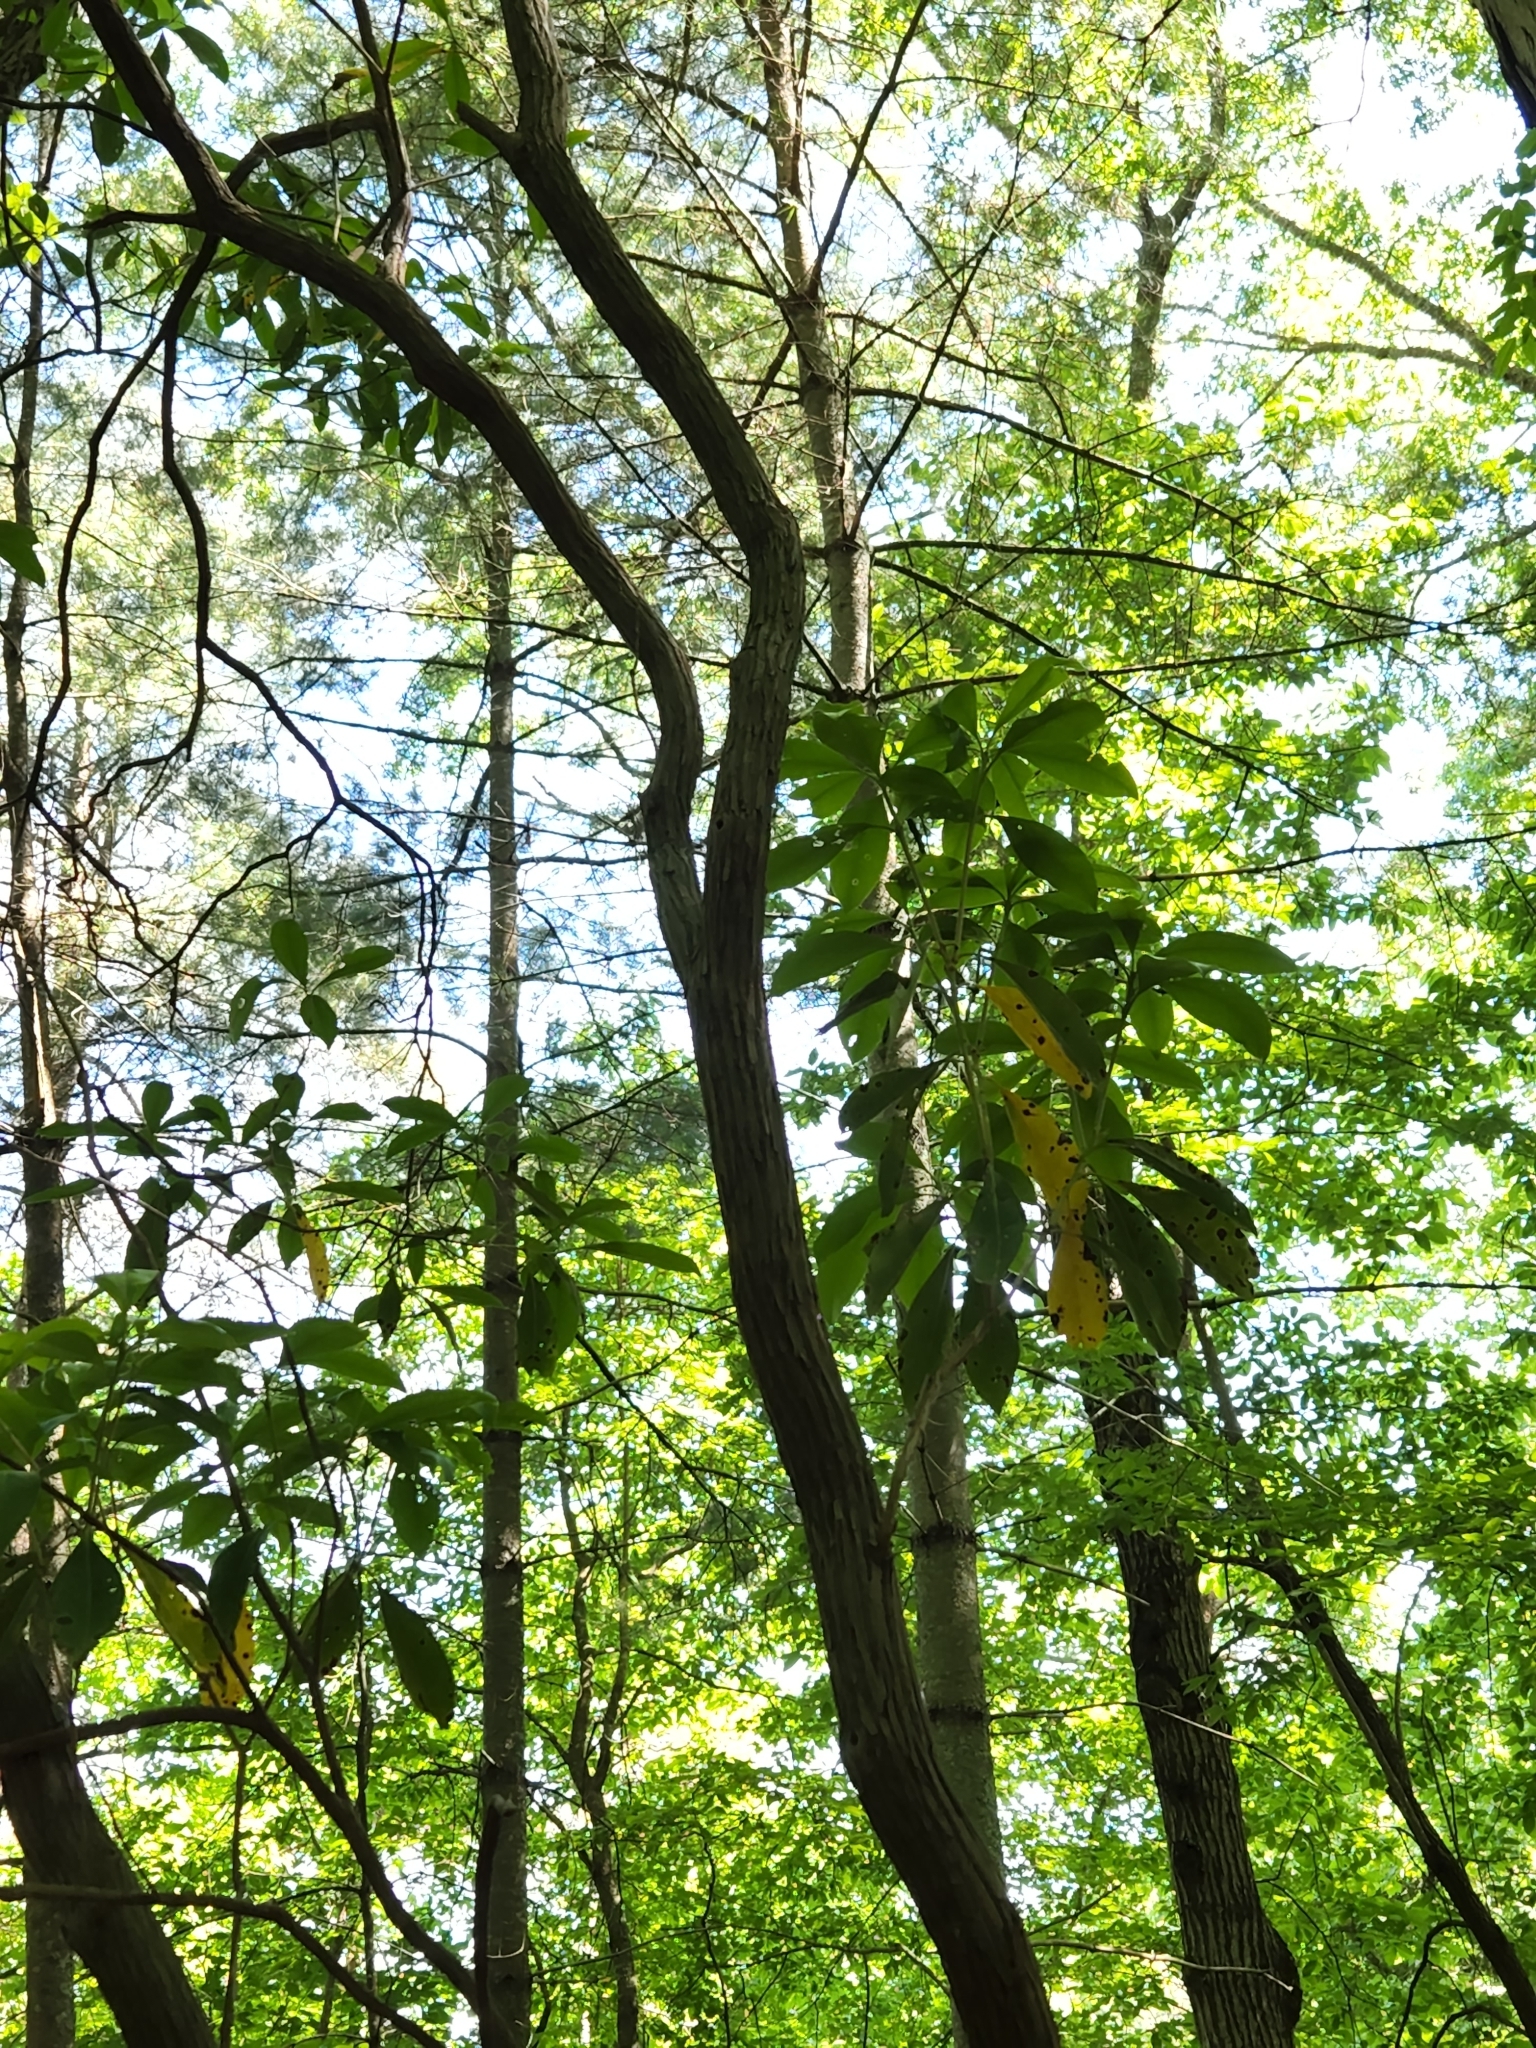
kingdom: Plantae
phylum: Tracheophyta
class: Magnoliopsida
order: Ericales
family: Ericaceae
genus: Kalmia
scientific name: Kalmia latifolia
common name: Mountain-laurel
